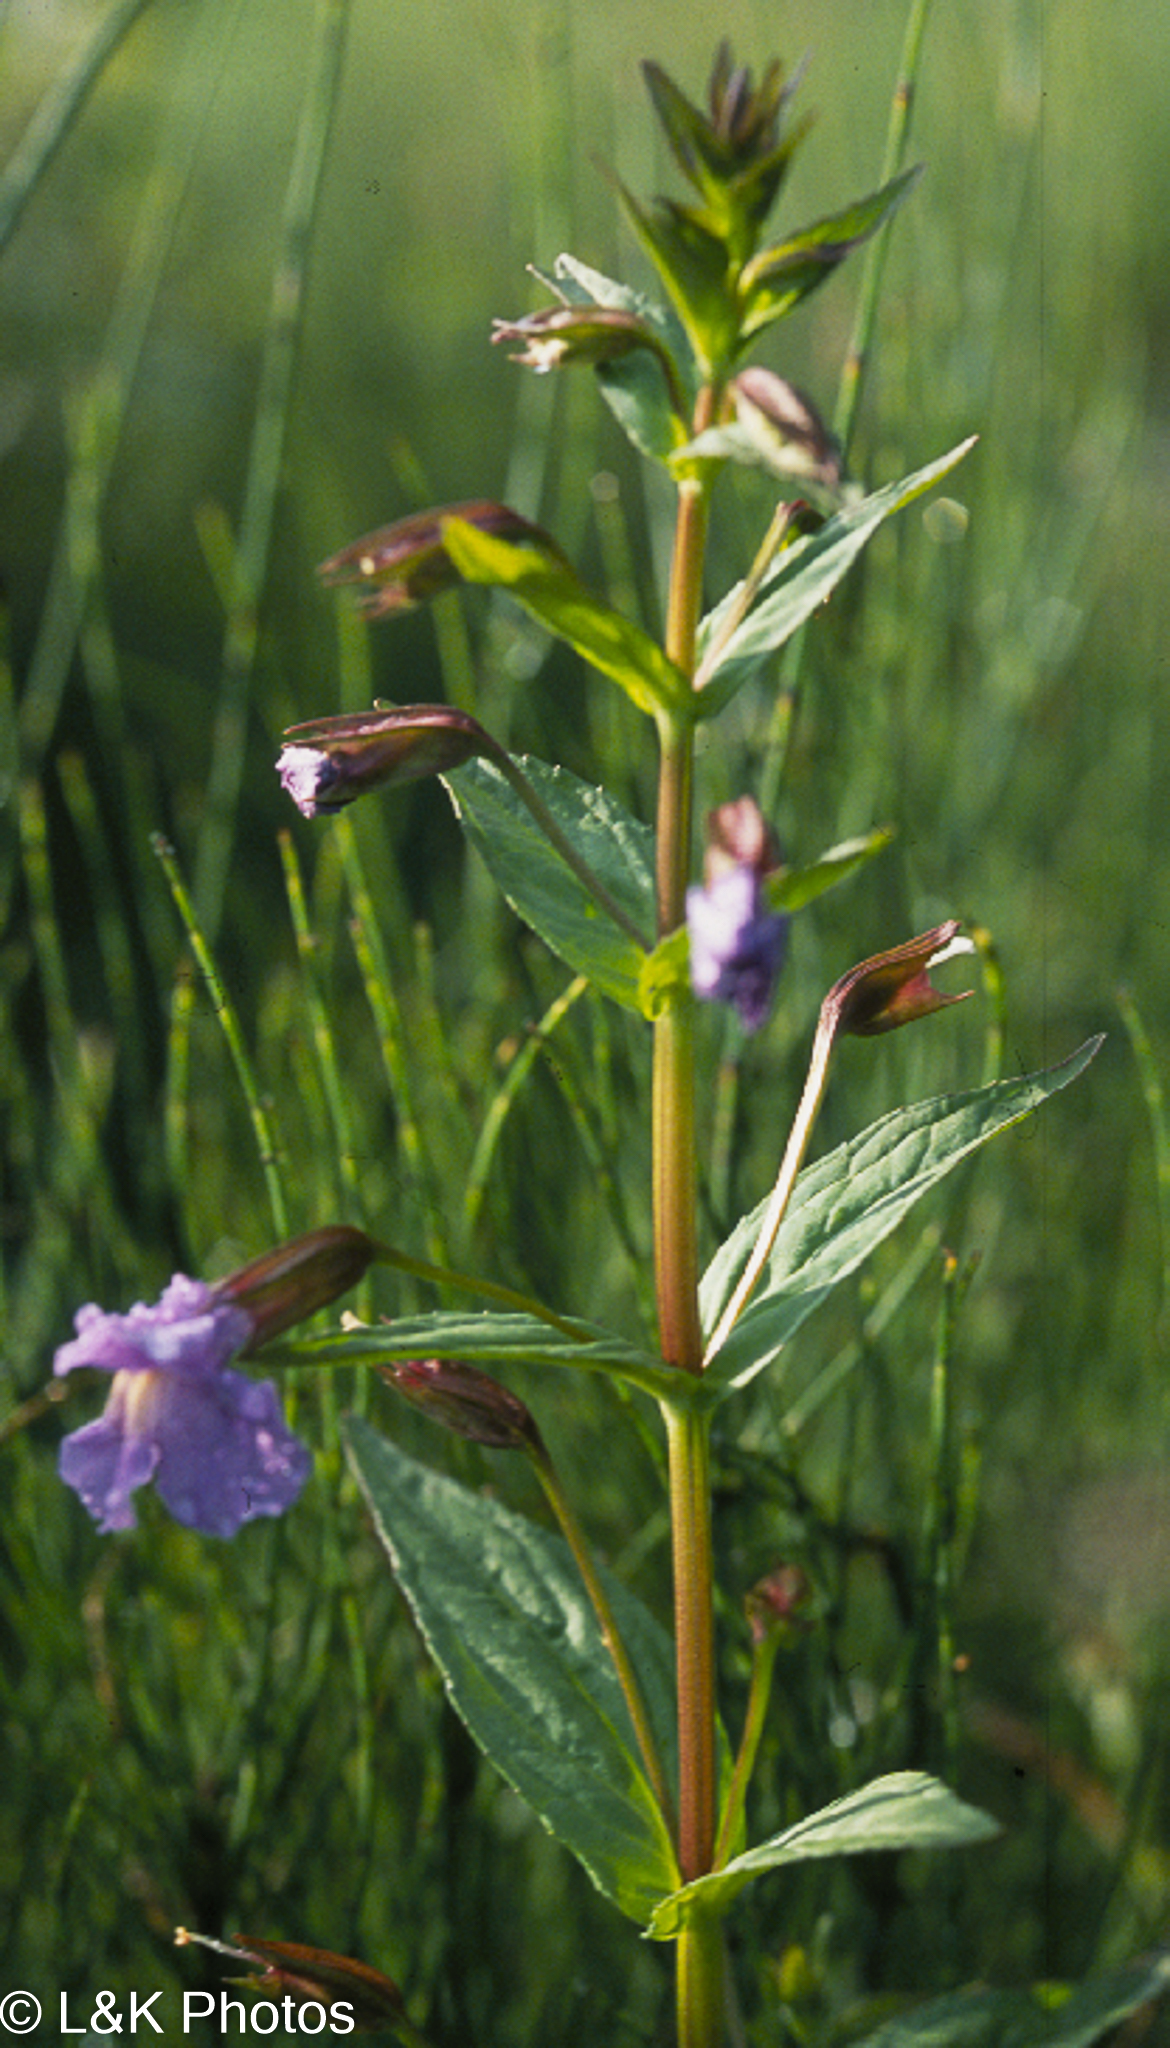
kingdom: Plantae
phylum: Tracheophyta
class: Magnoliopsida
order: Lamiales
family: Phrymaceae
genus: Mimulus
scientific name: Mimulus ringens
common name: Allegheny monkeyflower
